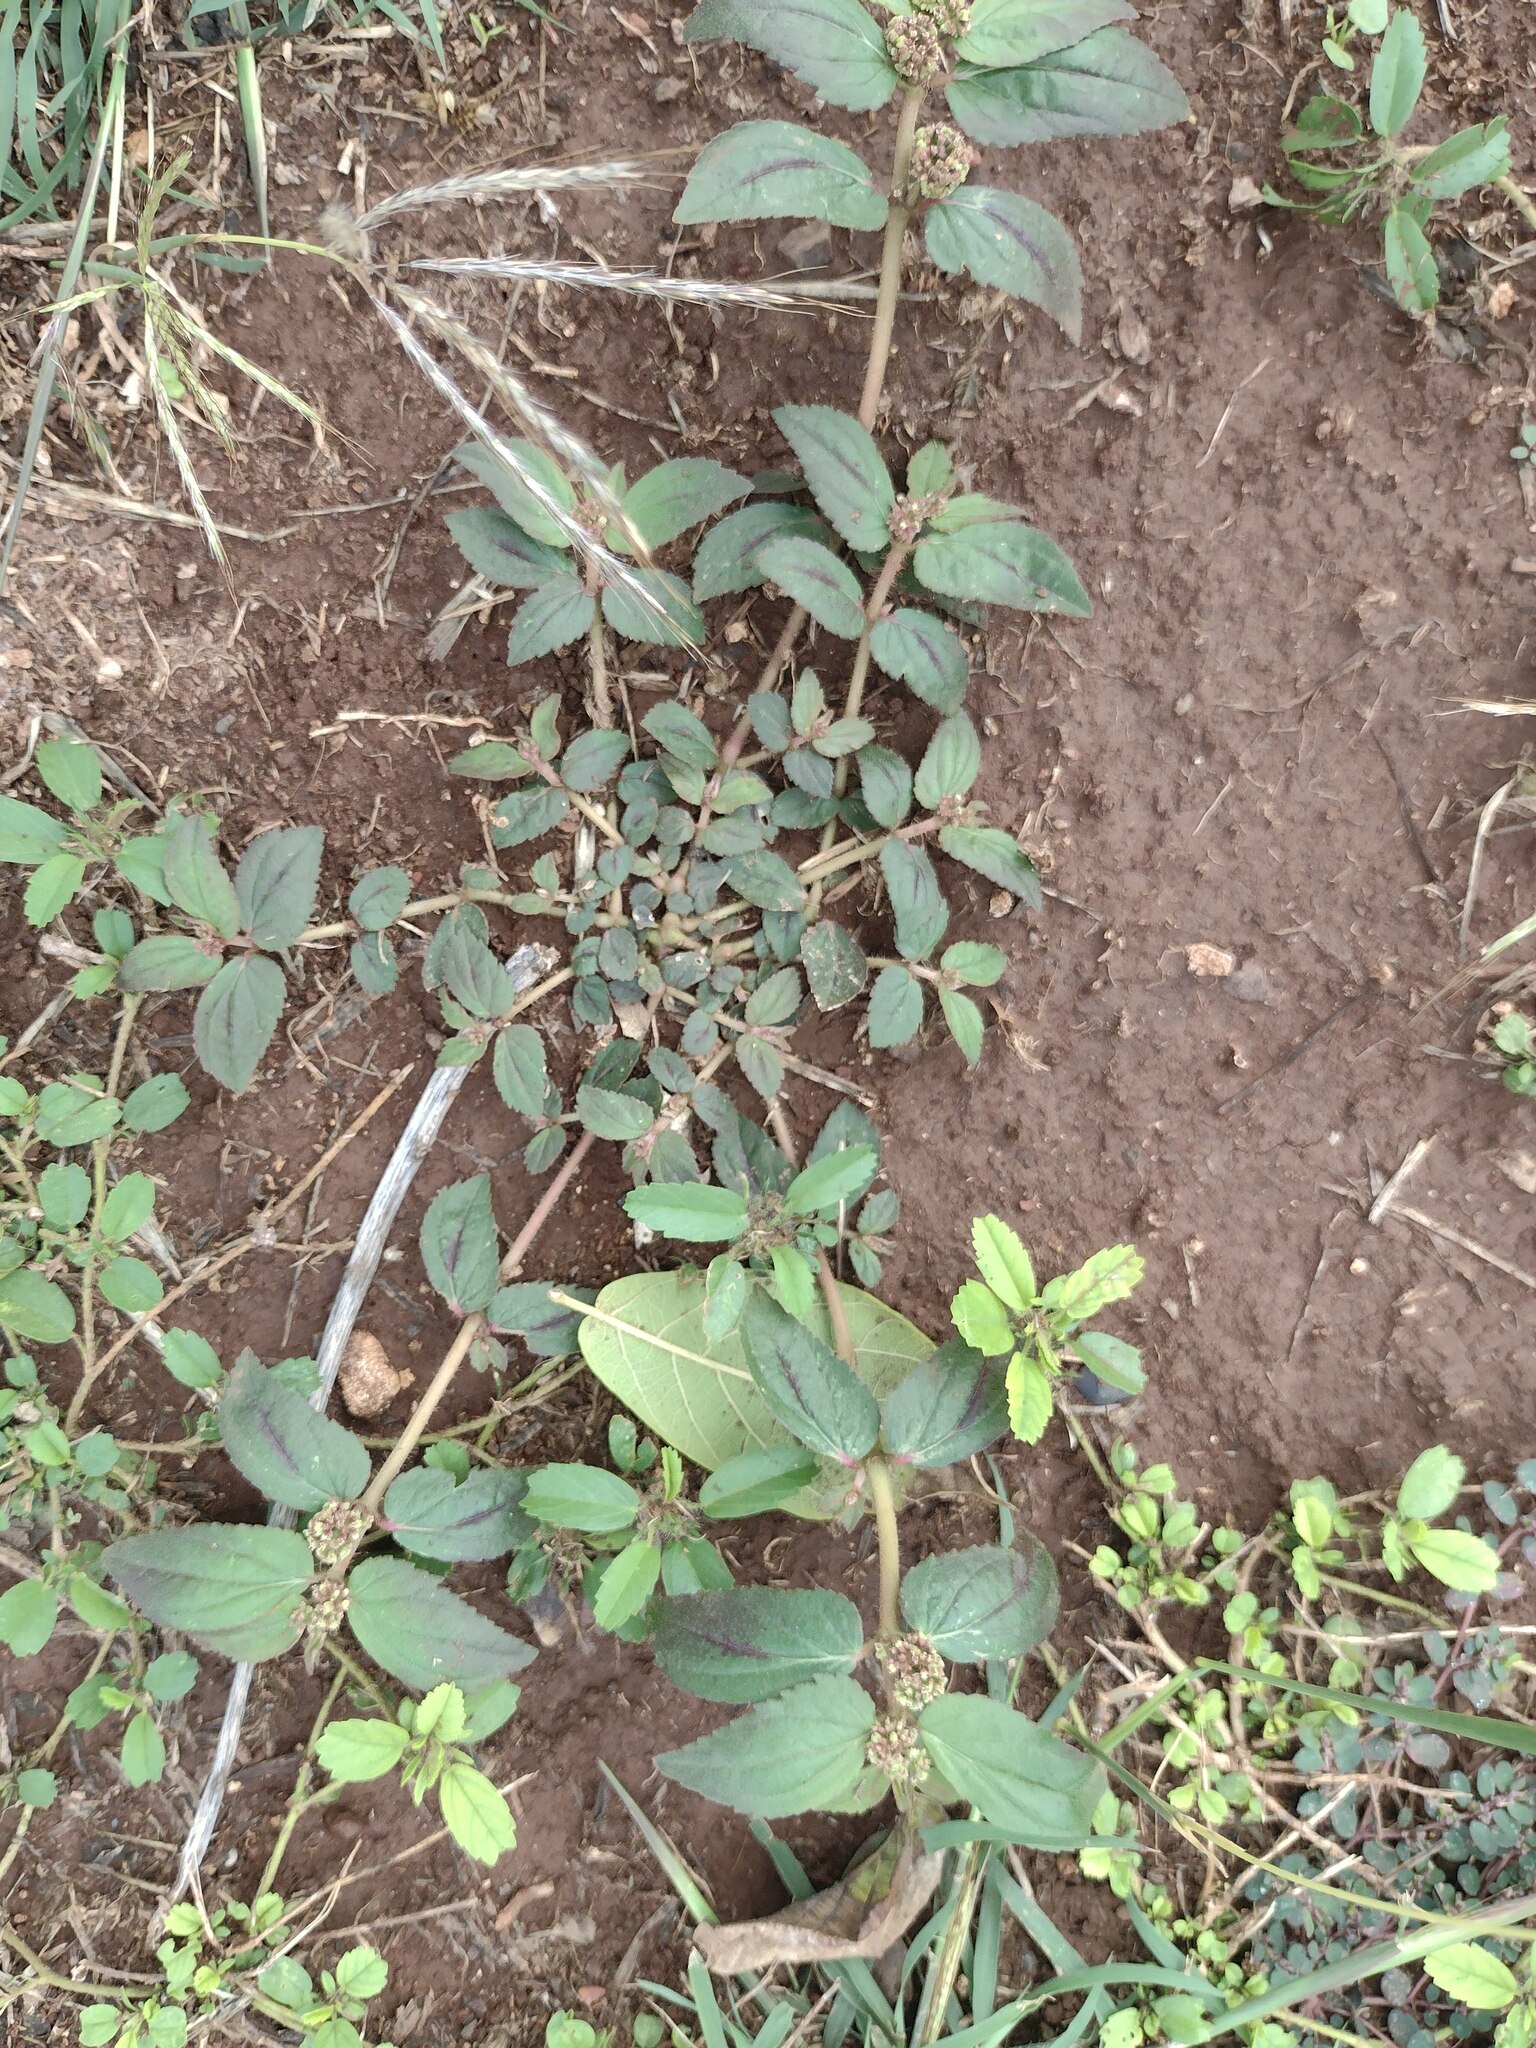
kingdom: Plantae
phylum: Tracheophyta
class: Magnoliopsida
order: Malpighiales
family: Euphorbiaceae
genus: Euphorbia
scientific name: Euphorbia hirta
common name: Pillpod sandmat
